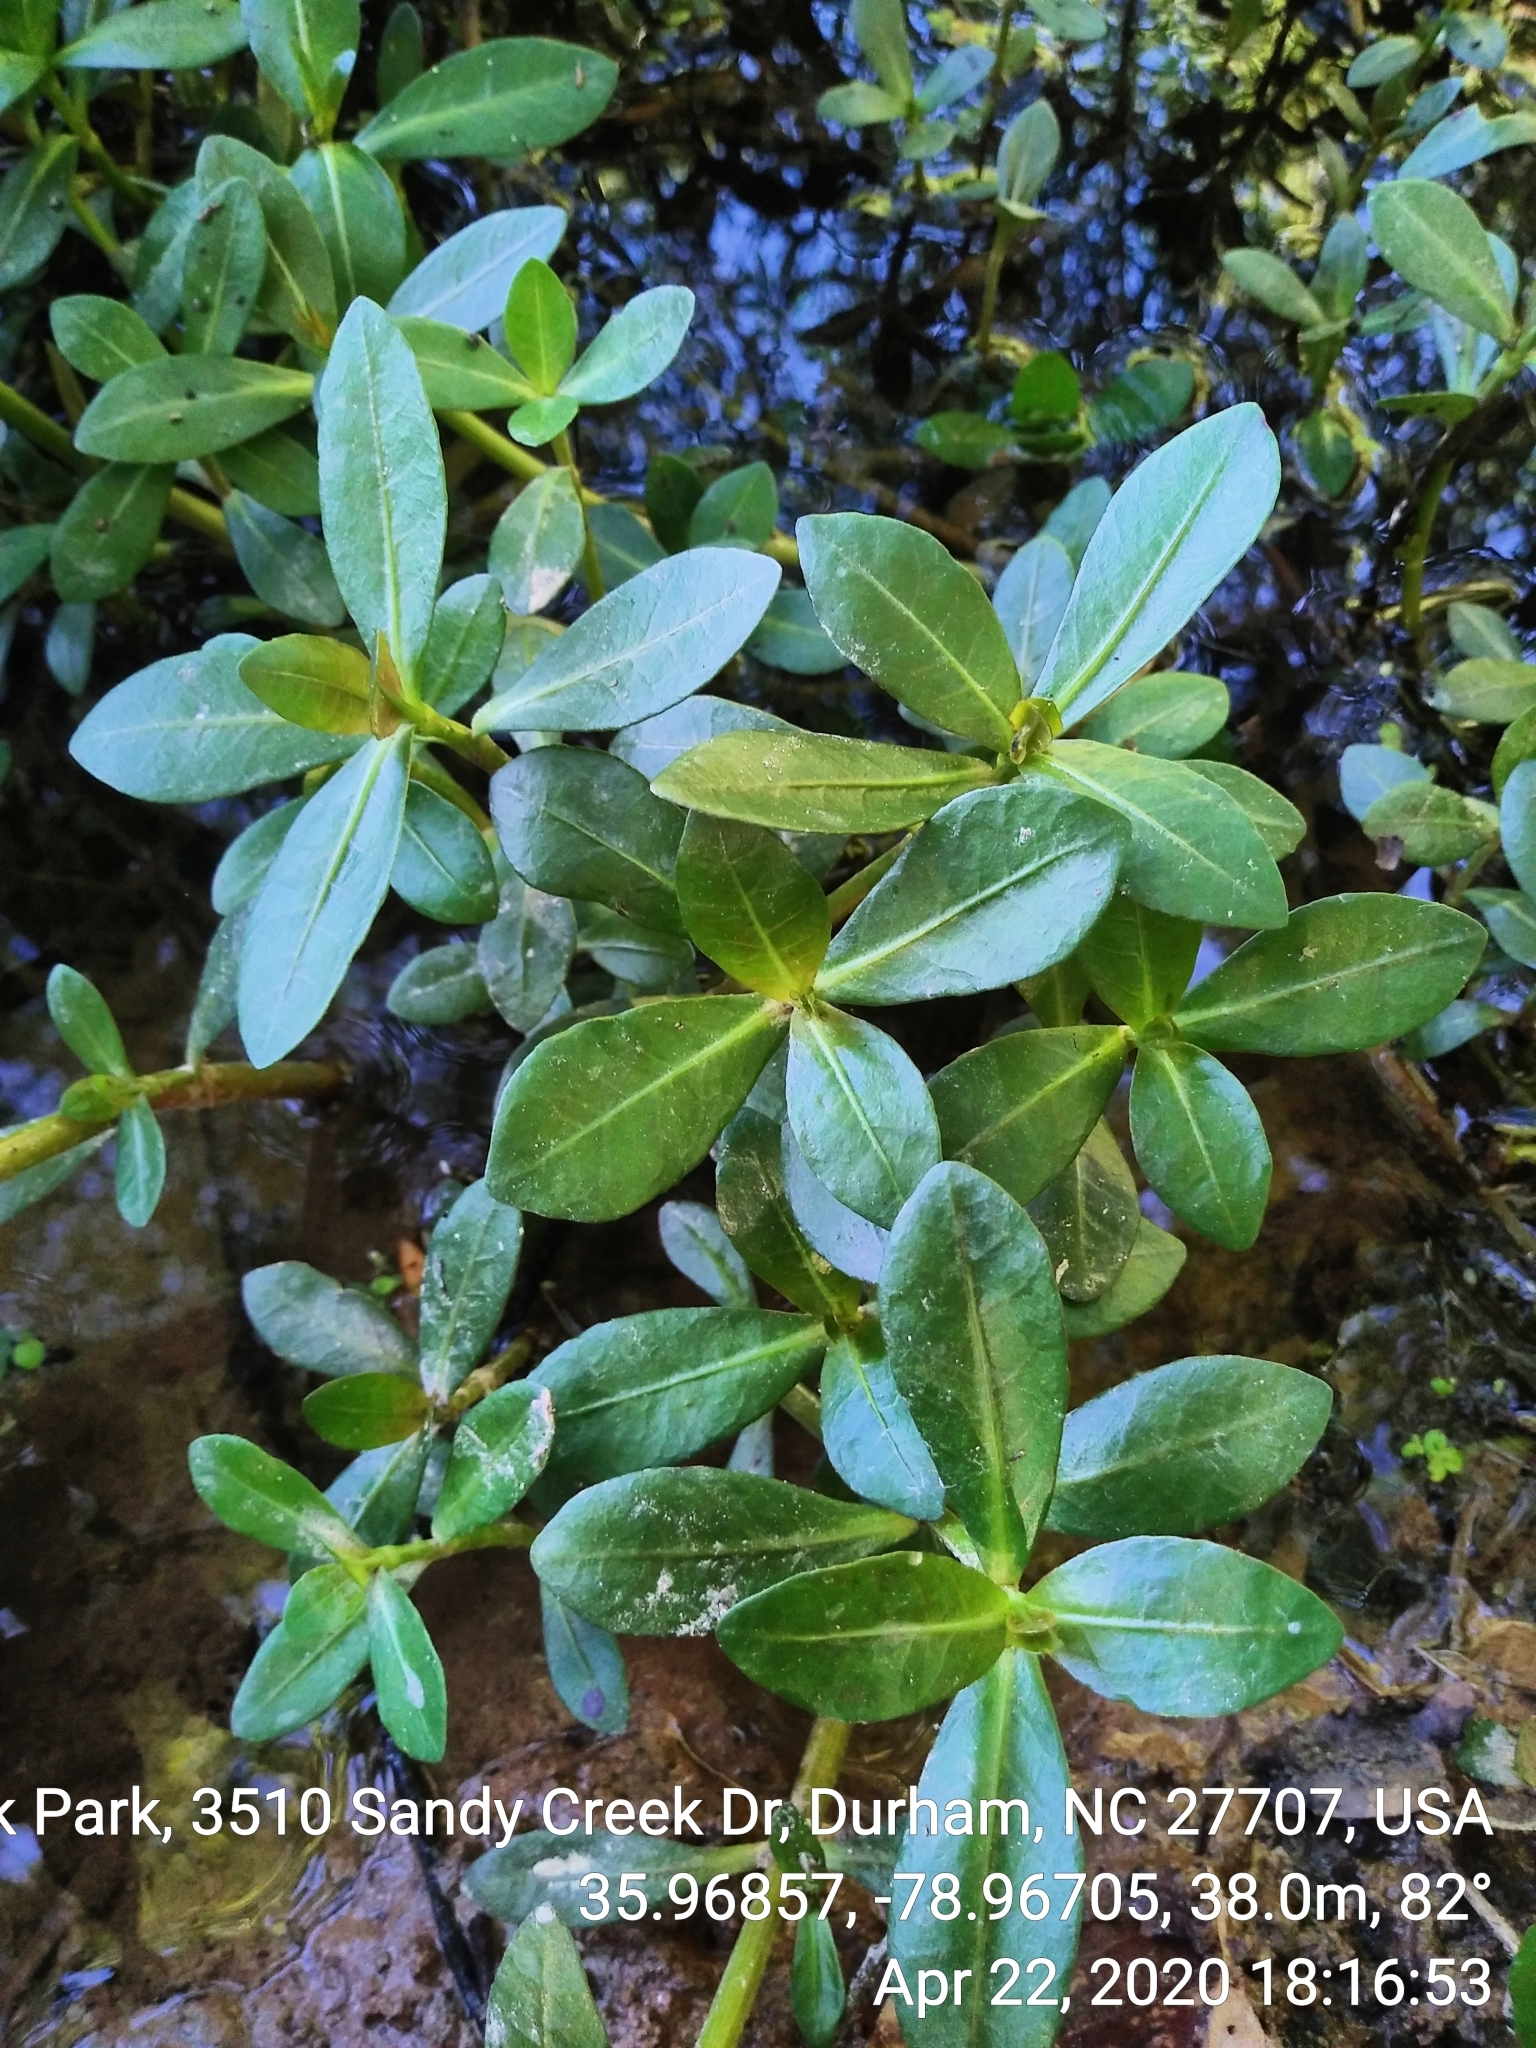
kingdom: Plantae
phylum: Tracheophyta
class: Magnoliopsida
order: Caryophyllales
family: Amaranthaceae
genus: Alternanthera
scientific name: Alternanthera philoxeroides
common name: Alligatorweed
